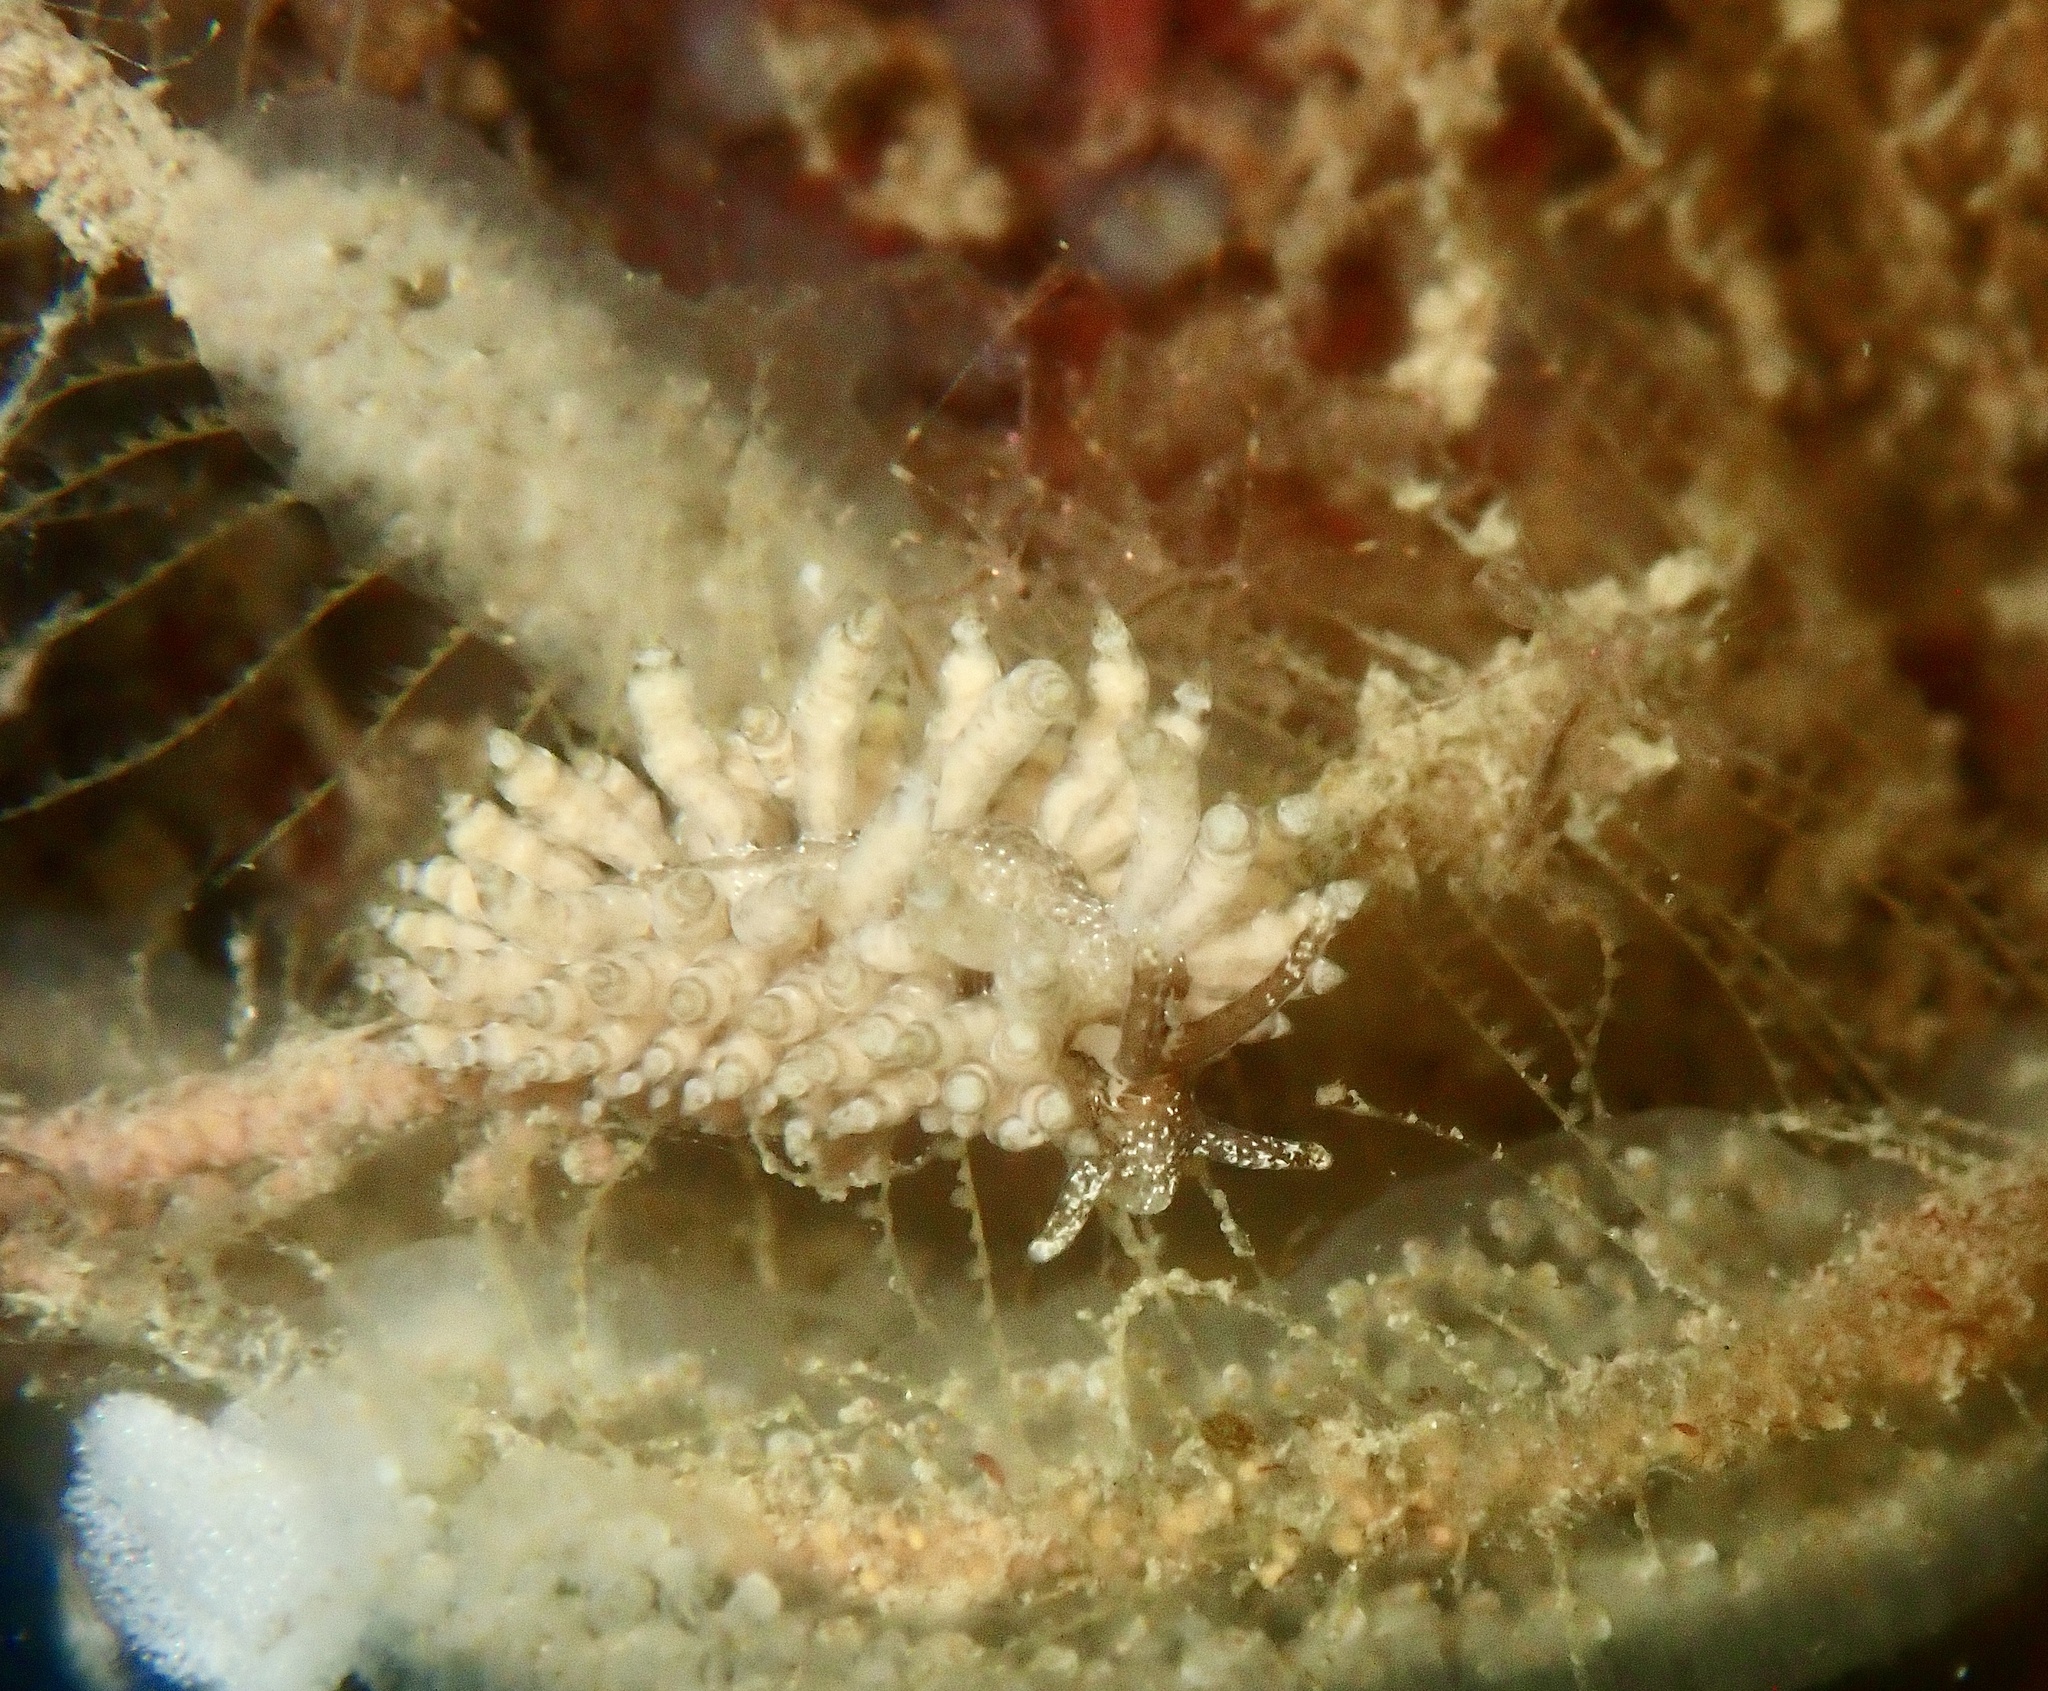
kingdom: Animalia
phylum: Mollusca
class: Gastropoda
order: Nudibranchia
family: Eubranchidae
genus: Eubranchus
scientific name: Eubranchus vittatus
